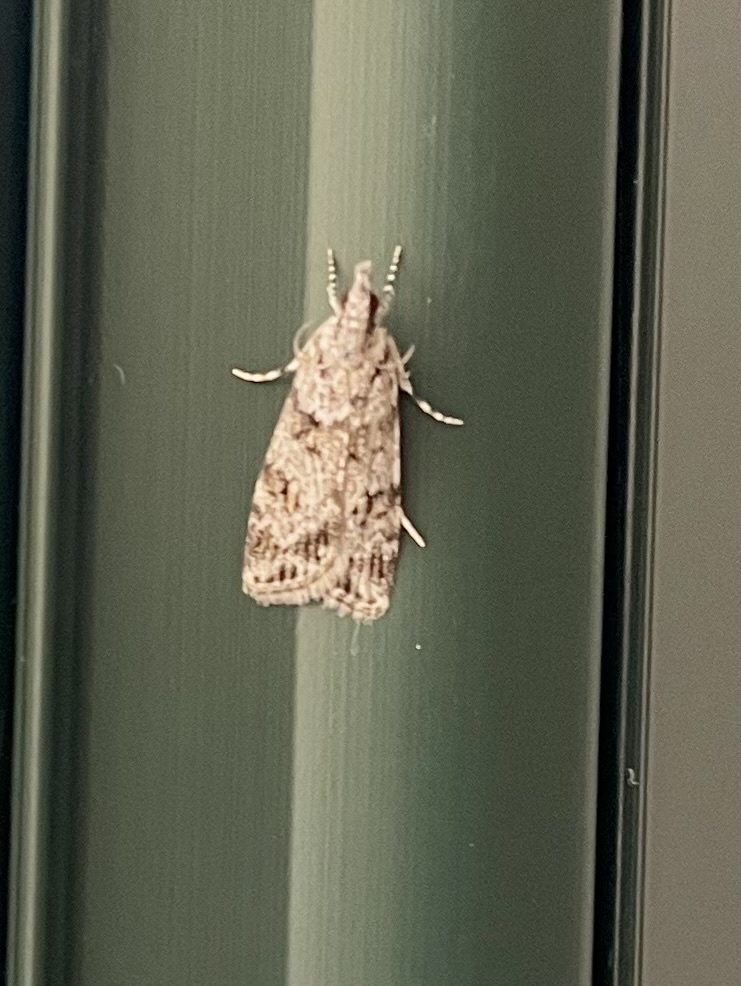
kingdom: Animalia
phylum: Arthropoda
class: Insecta
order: Lepidoptera
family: Crambidae
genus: Scoparia
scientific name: Scoparia biplagialis
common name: Double-striped scoparia moth
